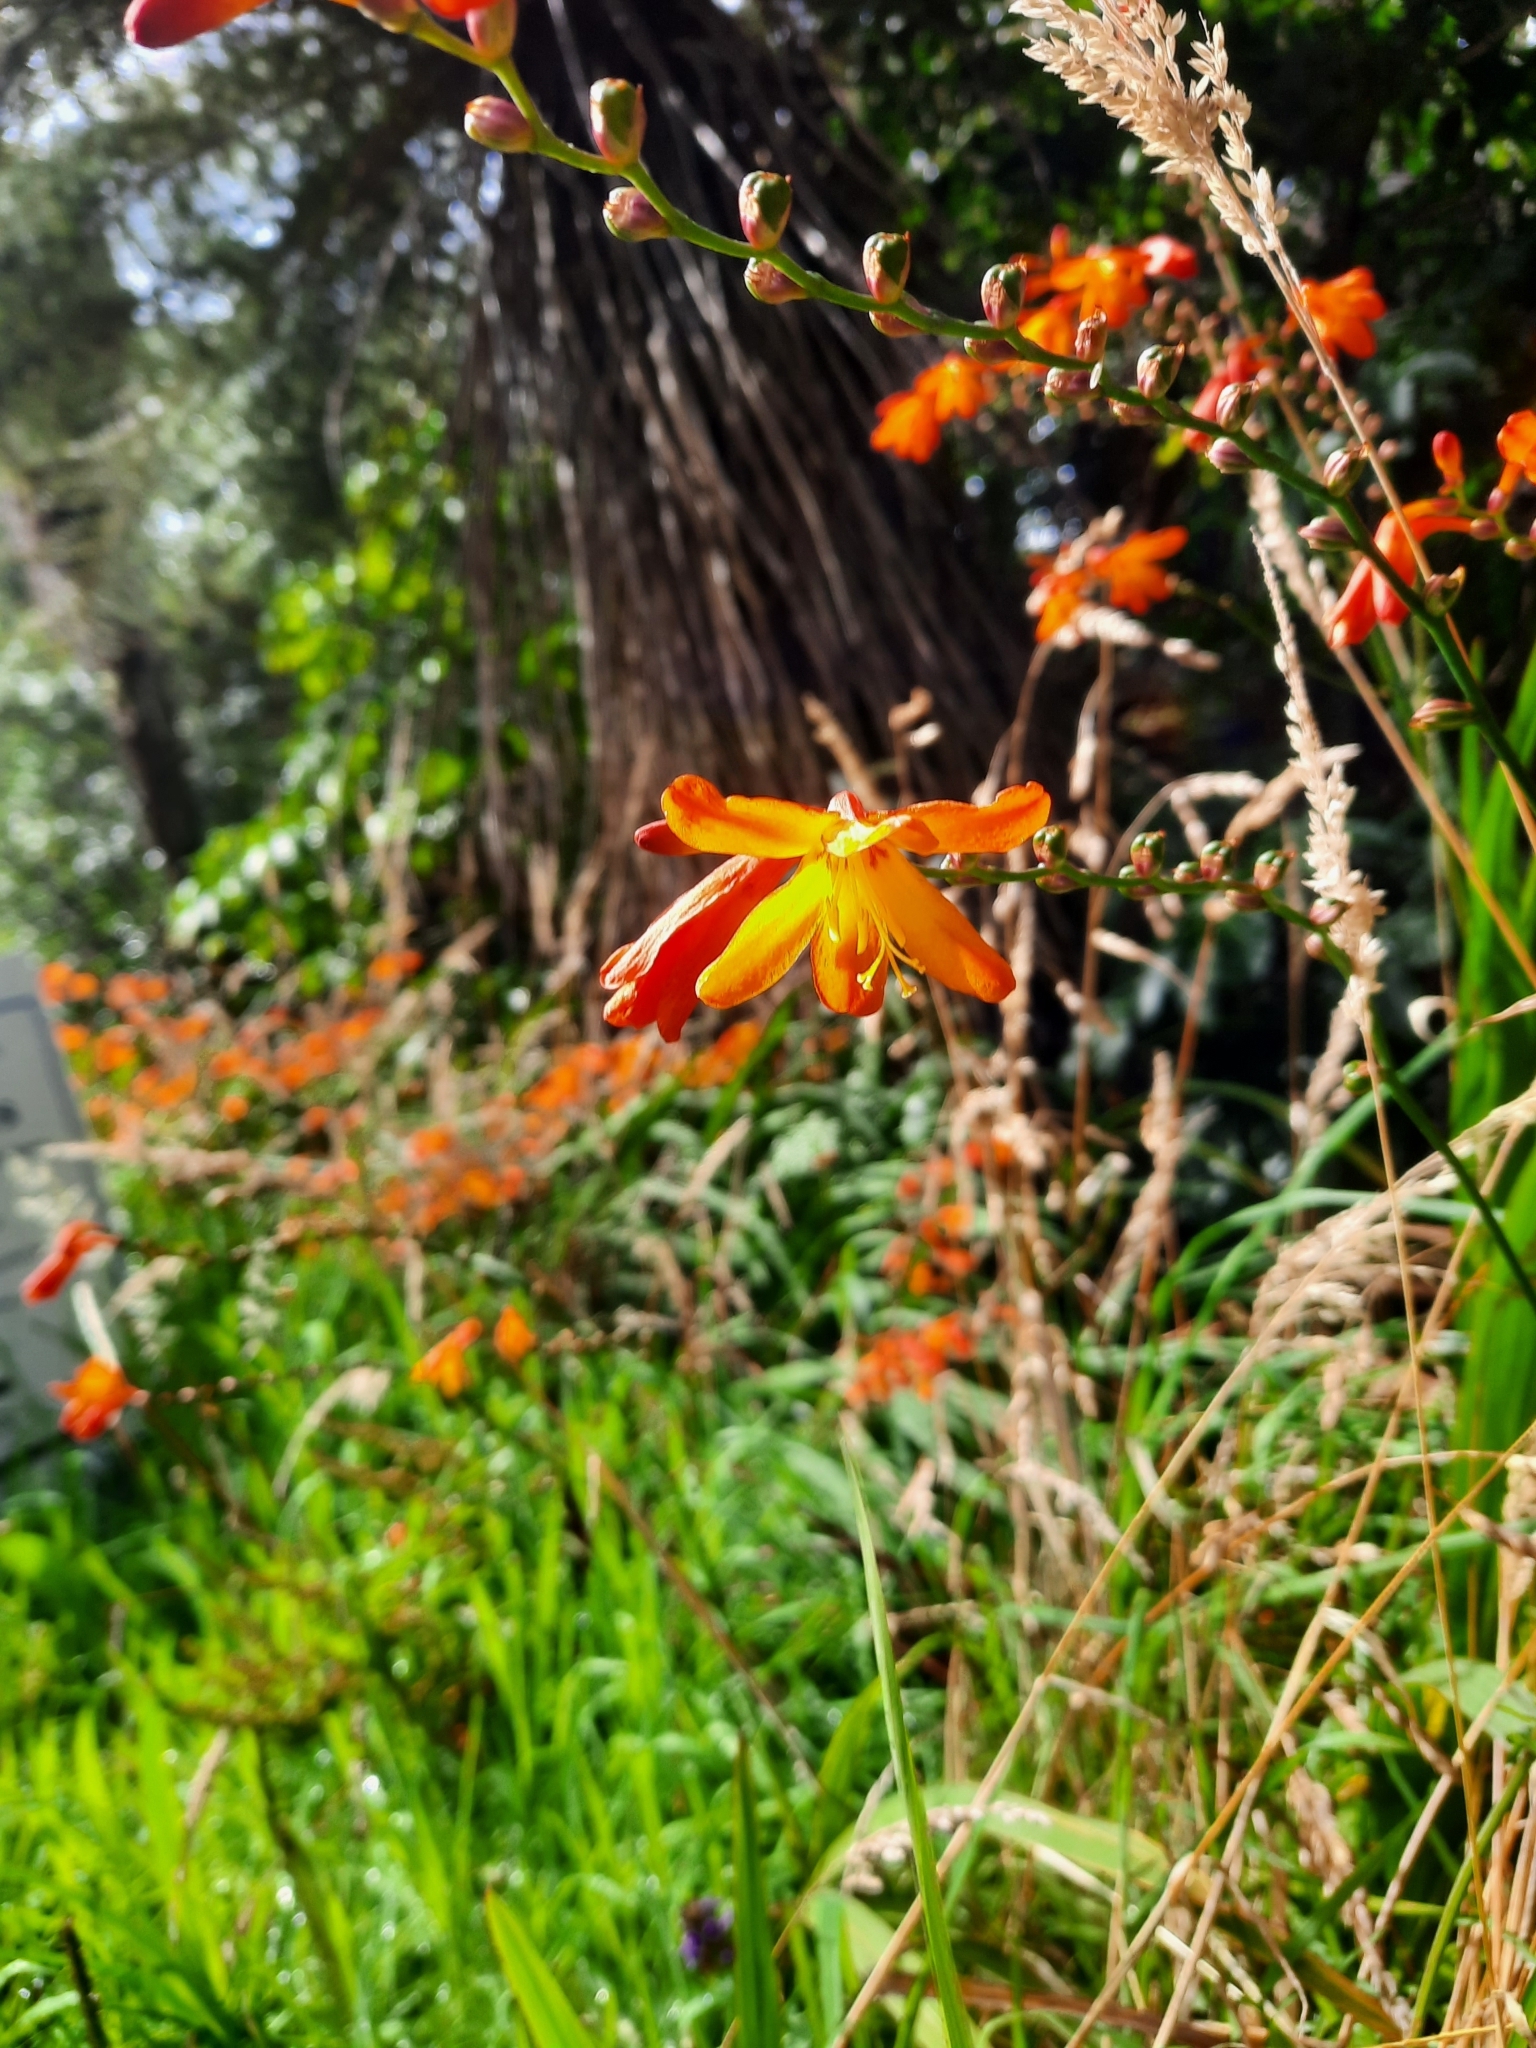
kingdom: Plantae
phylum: Tracheophyta
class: Liliopsida
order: Asparagales
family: Iridaceae
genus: Crocosmia
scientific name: Crocosmia crocosmiiflora
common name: Montbretia
